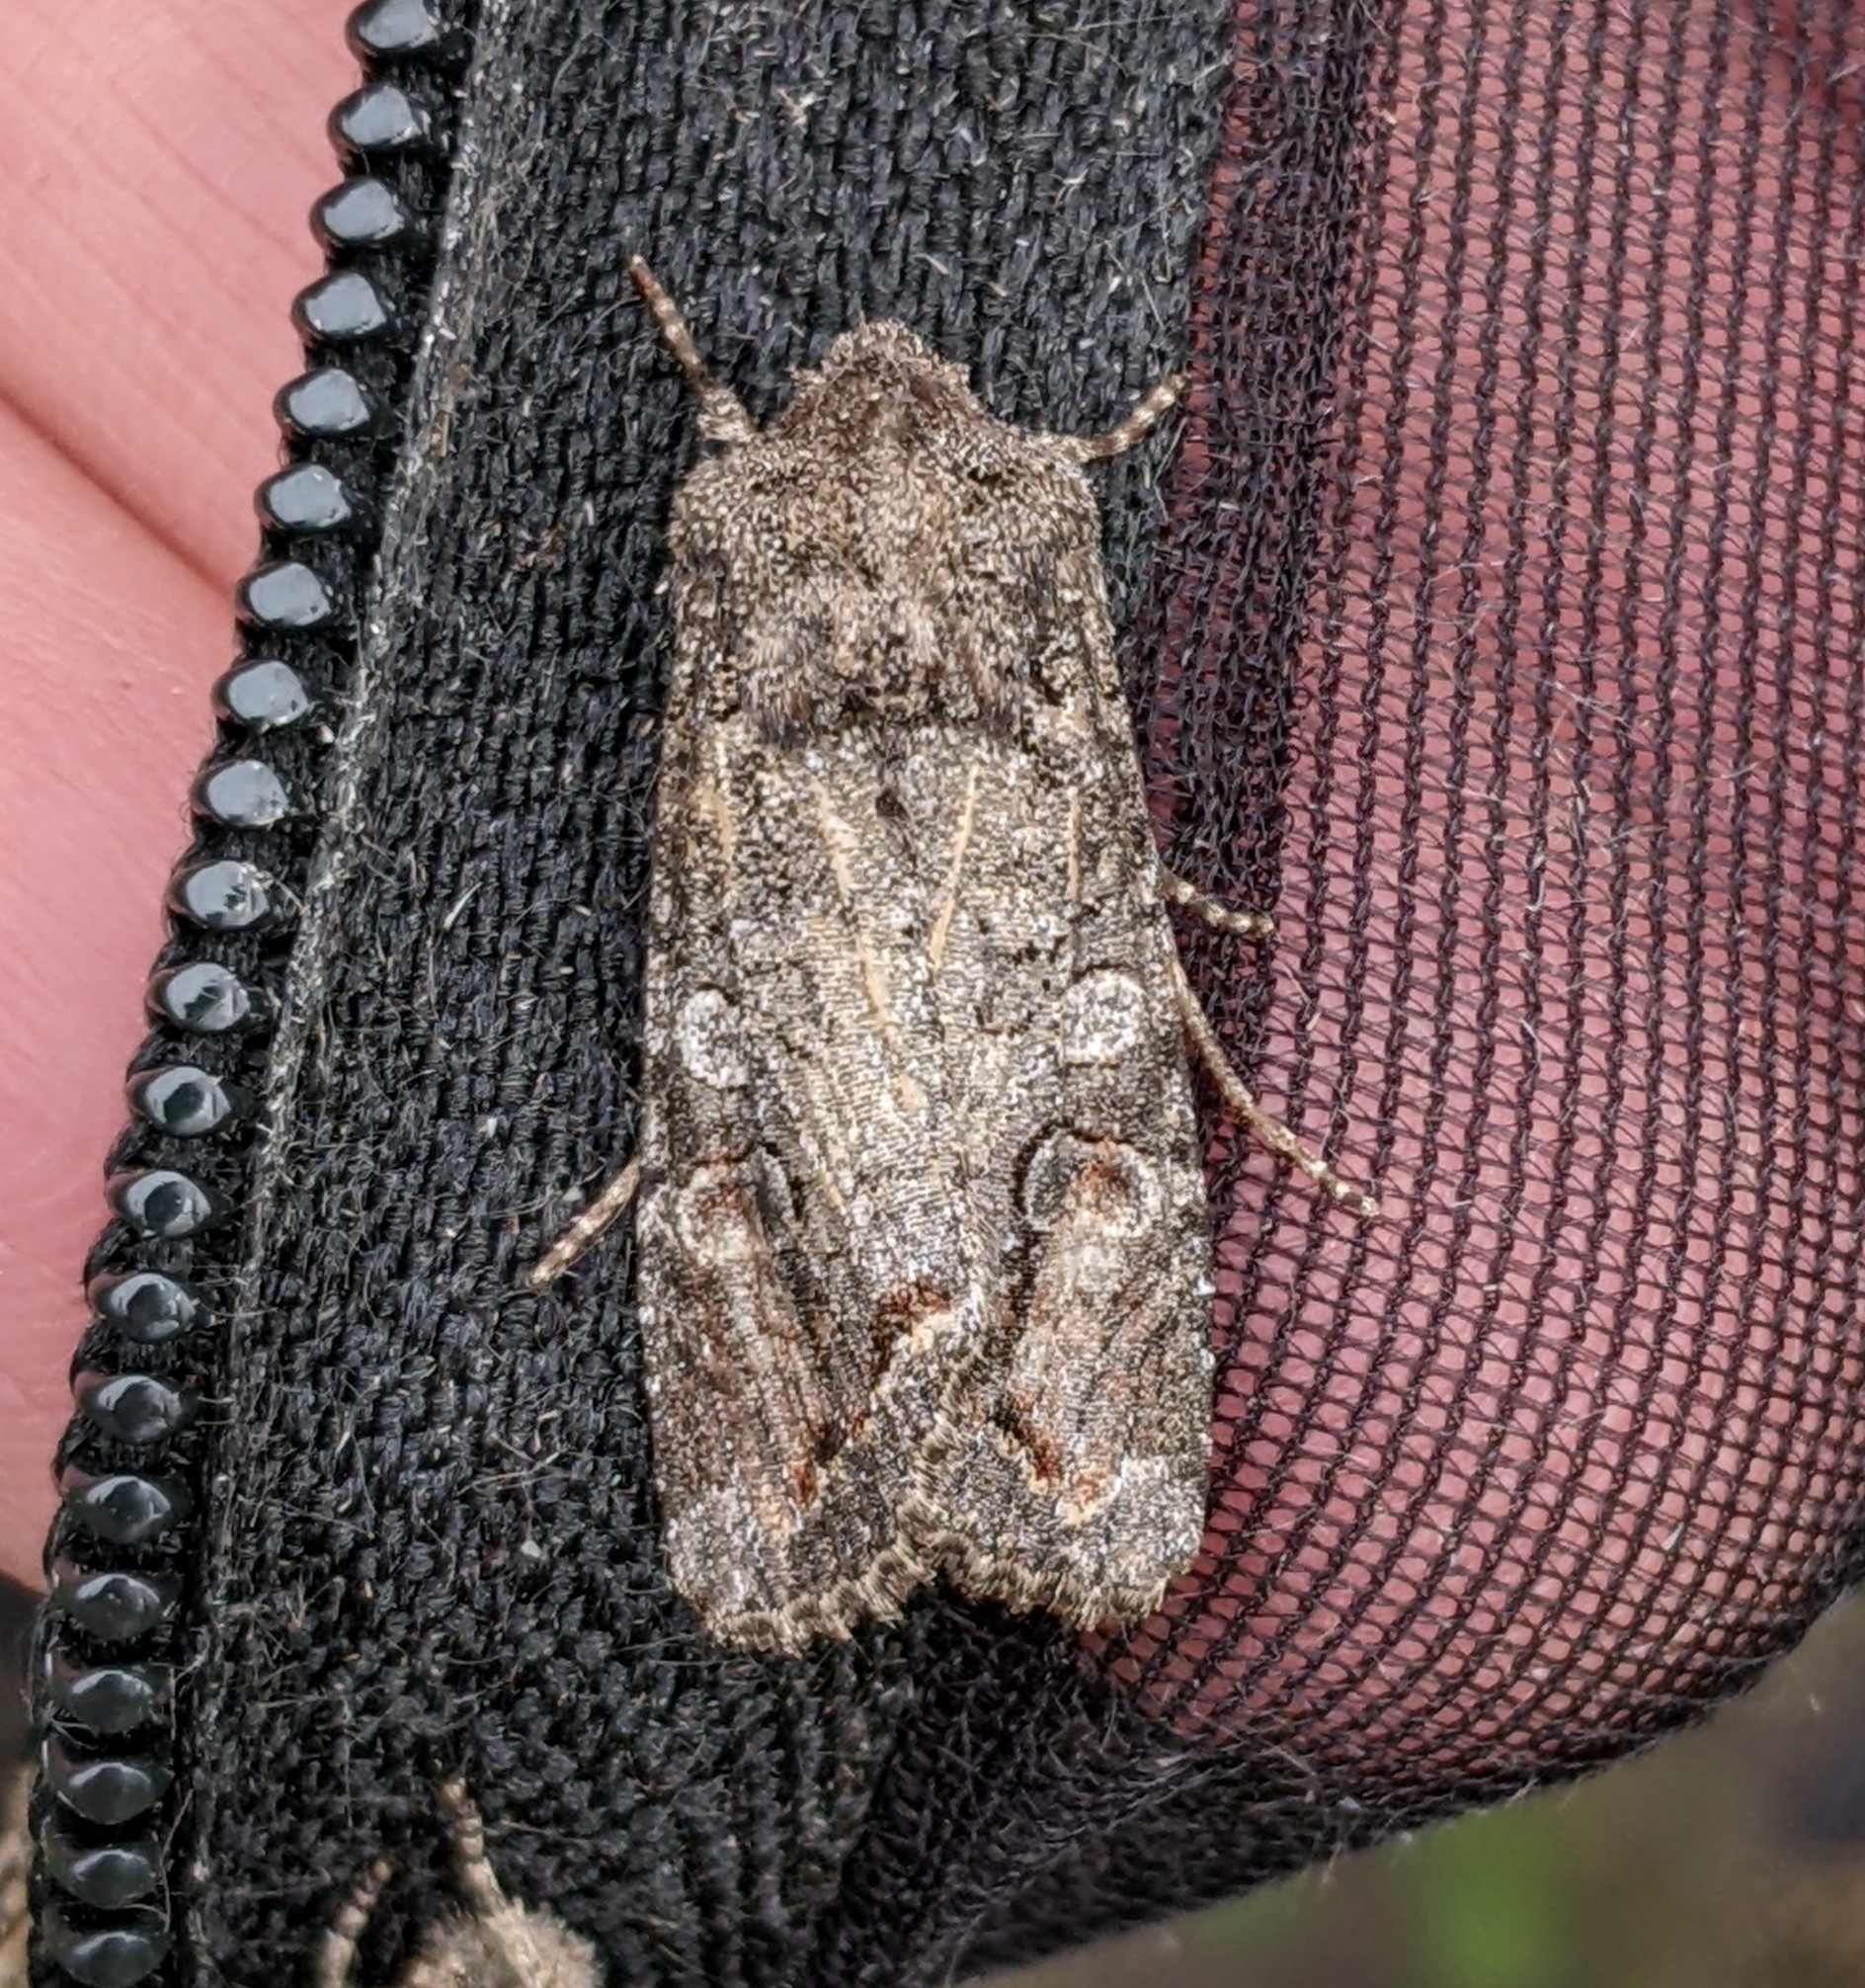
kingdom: Animalia
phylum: Arthropoda
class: Insecta
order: Lepidoptera
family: Noctuidae
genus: Egira
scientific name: Egira perlubens
